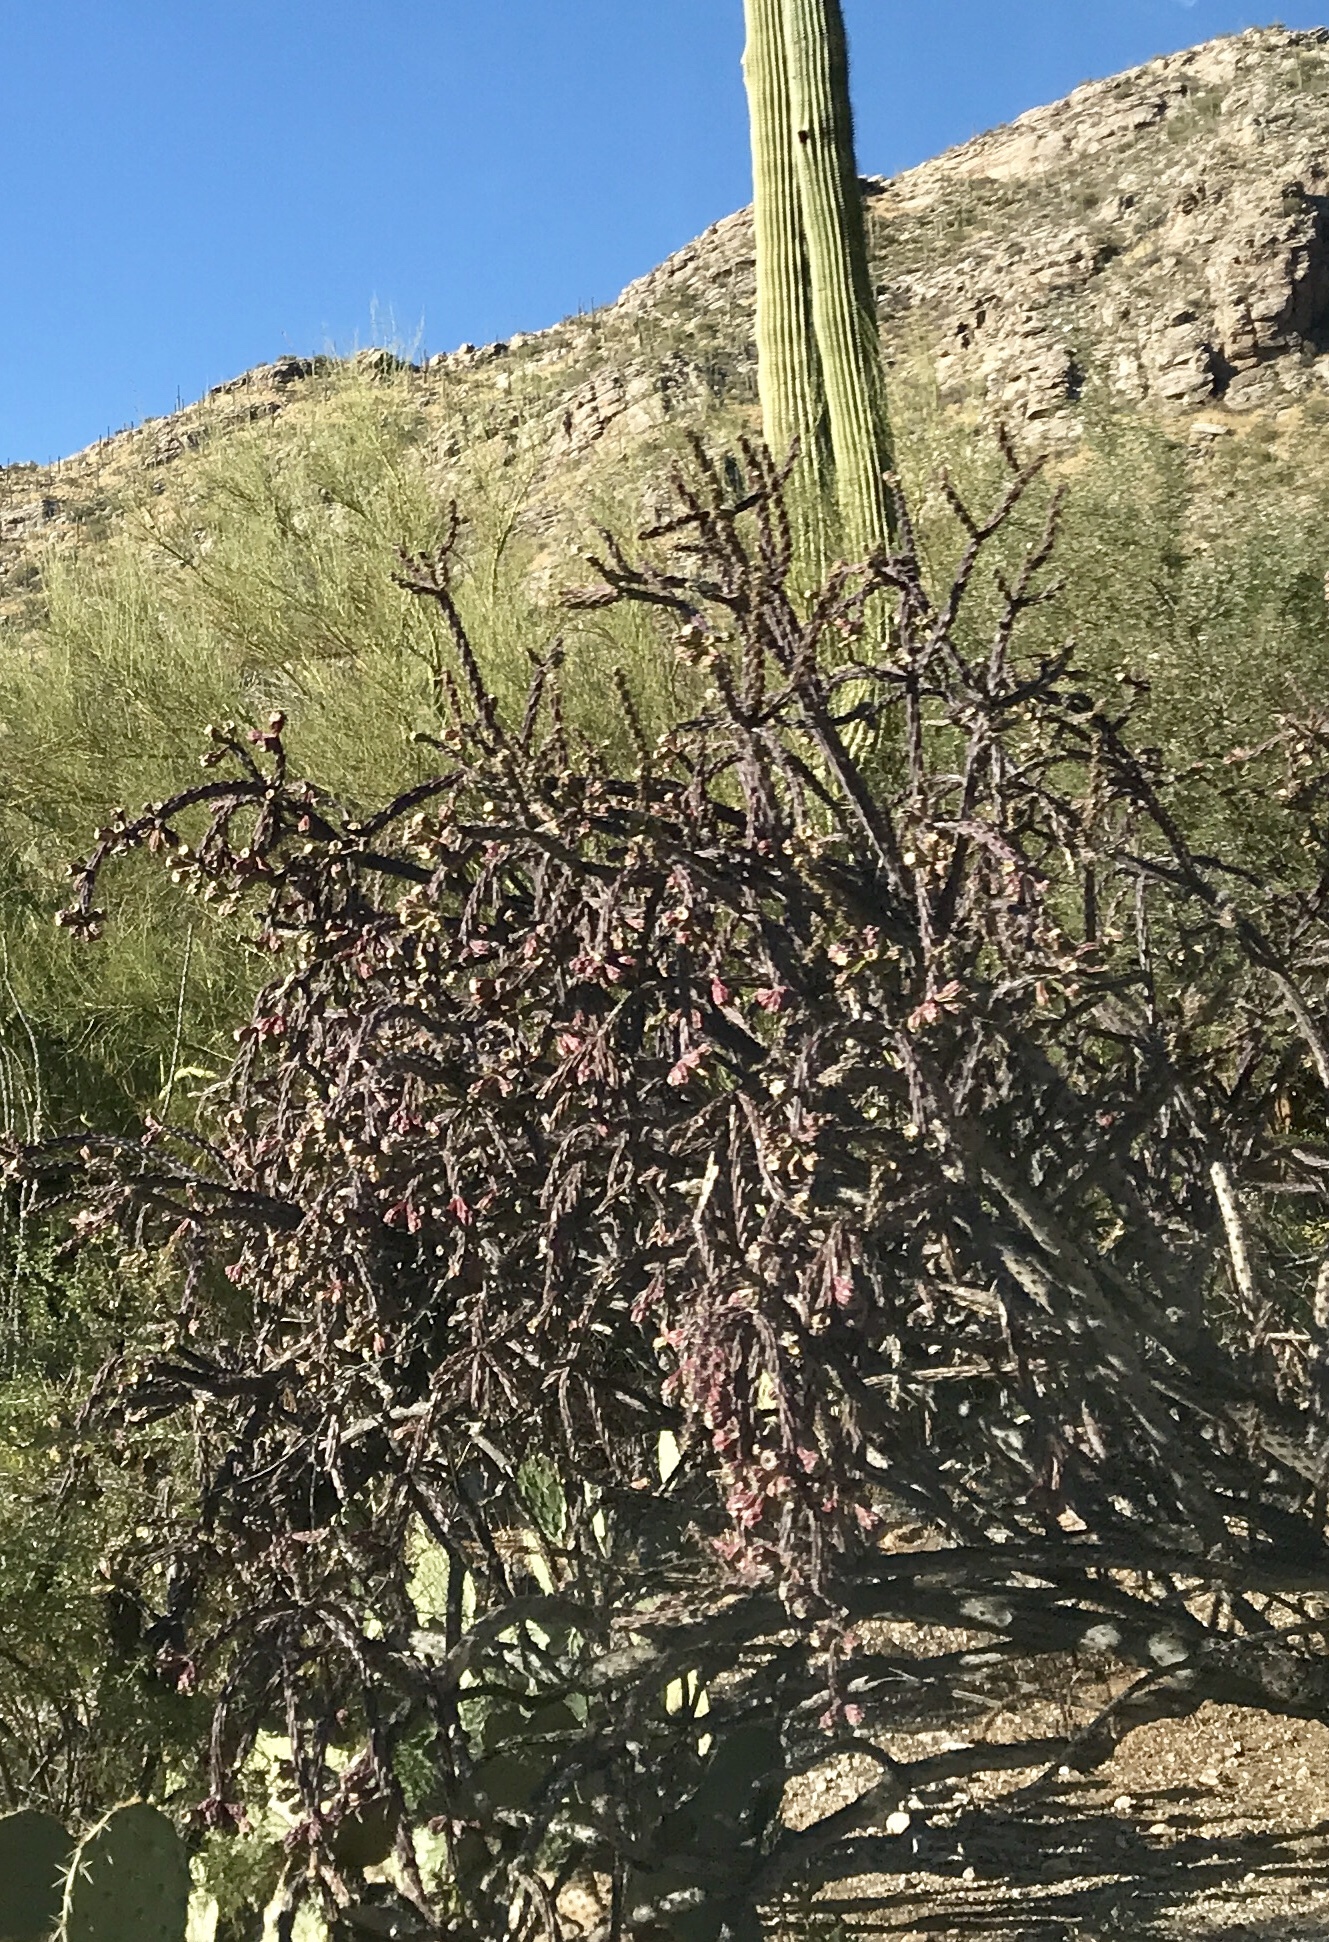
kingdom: Plantae
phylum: Tracheophyta
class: Magnoliopsida
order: Caryophyllales
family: Cactaceae
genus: Cylindropuntia
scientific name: Cylindropuntia thurberi
